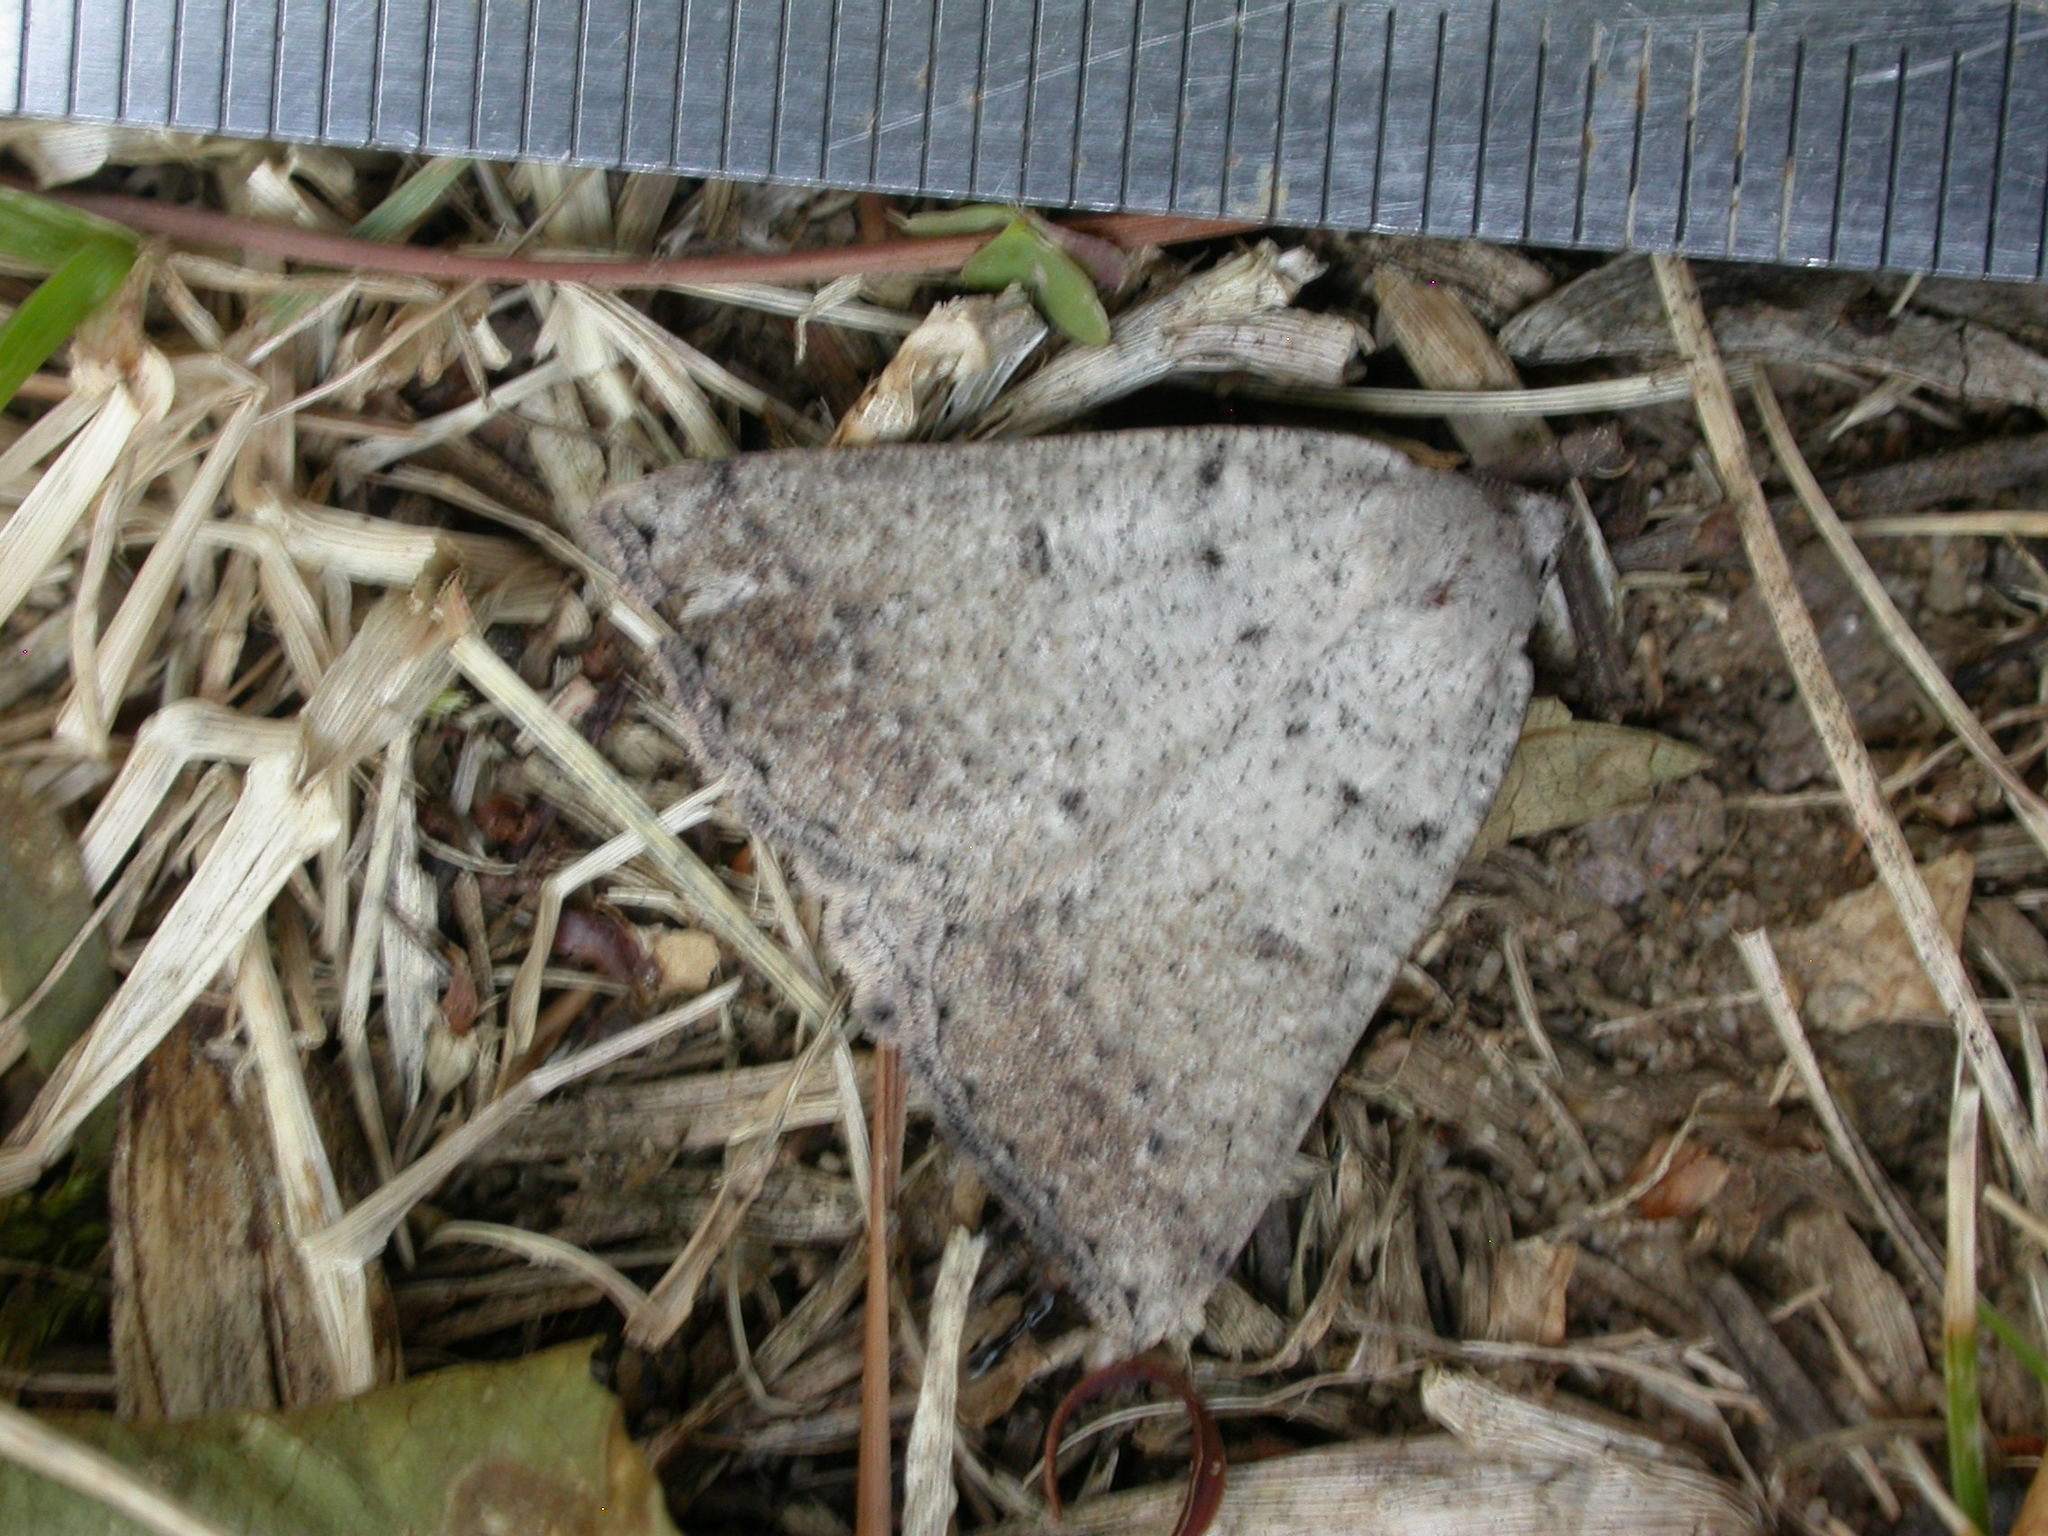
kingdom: Animalia
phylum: Arthropoda
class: Insecta
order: Lepidoptera
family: Geometridae
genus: Amelora
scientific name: Amelora zophopasta
